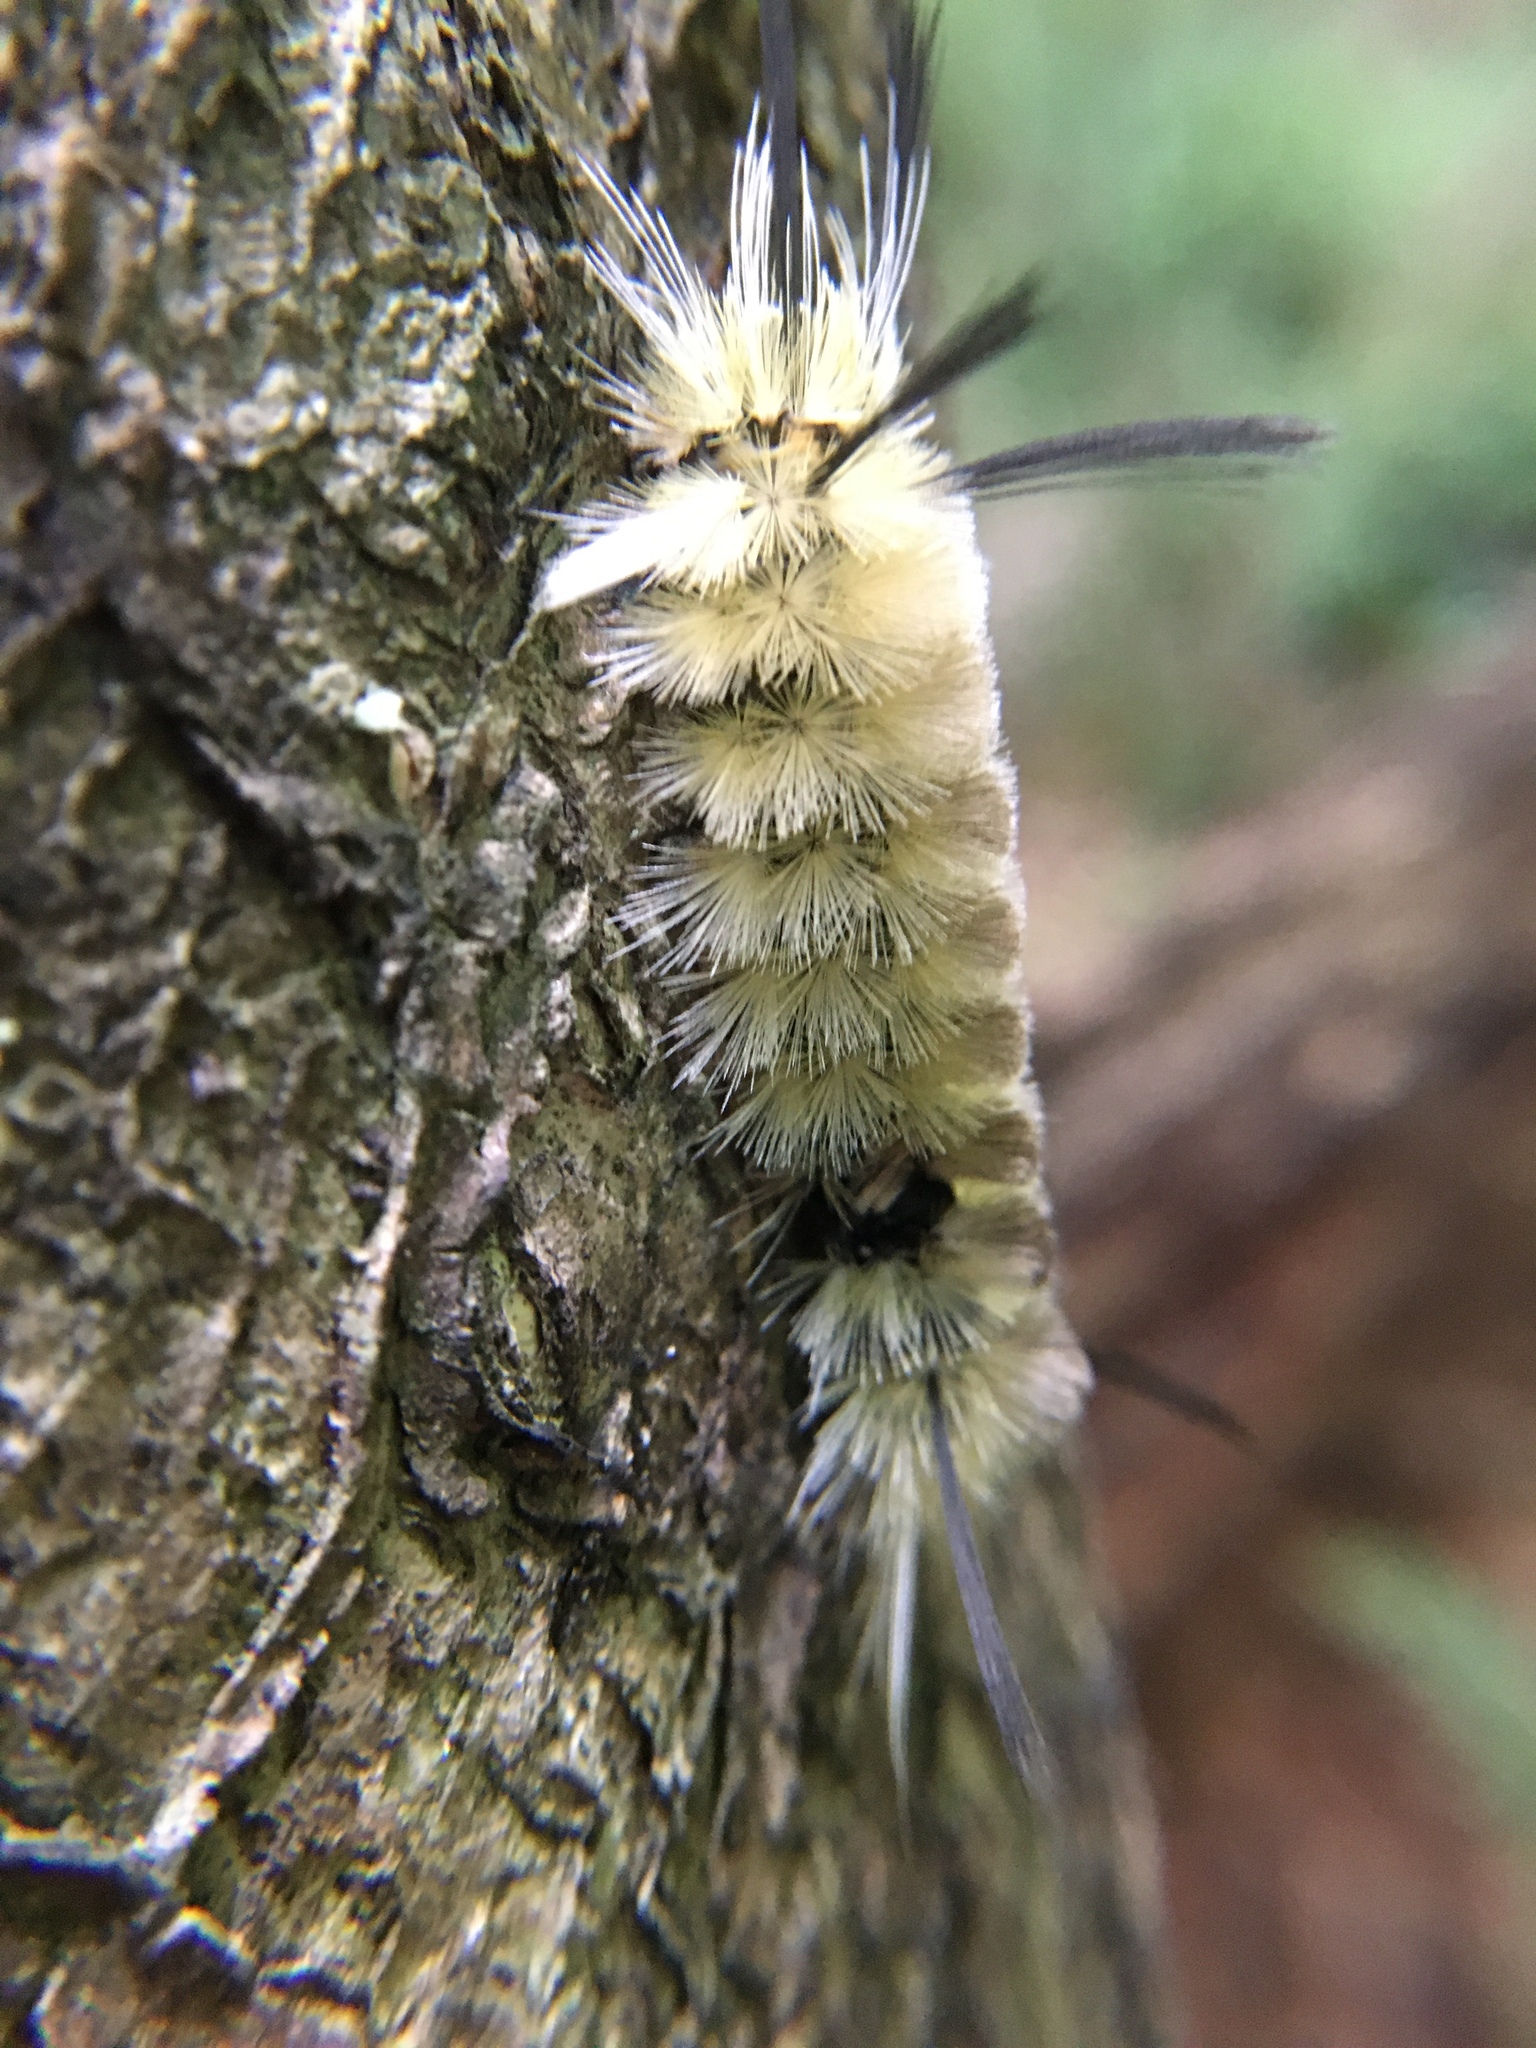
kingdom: Animalia
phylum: Arthropoda
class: Insecta
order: Lepidoptera
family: Erebidae
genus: Halysidota
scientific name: Halysidota tessellaris
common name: Banded tussock moth
